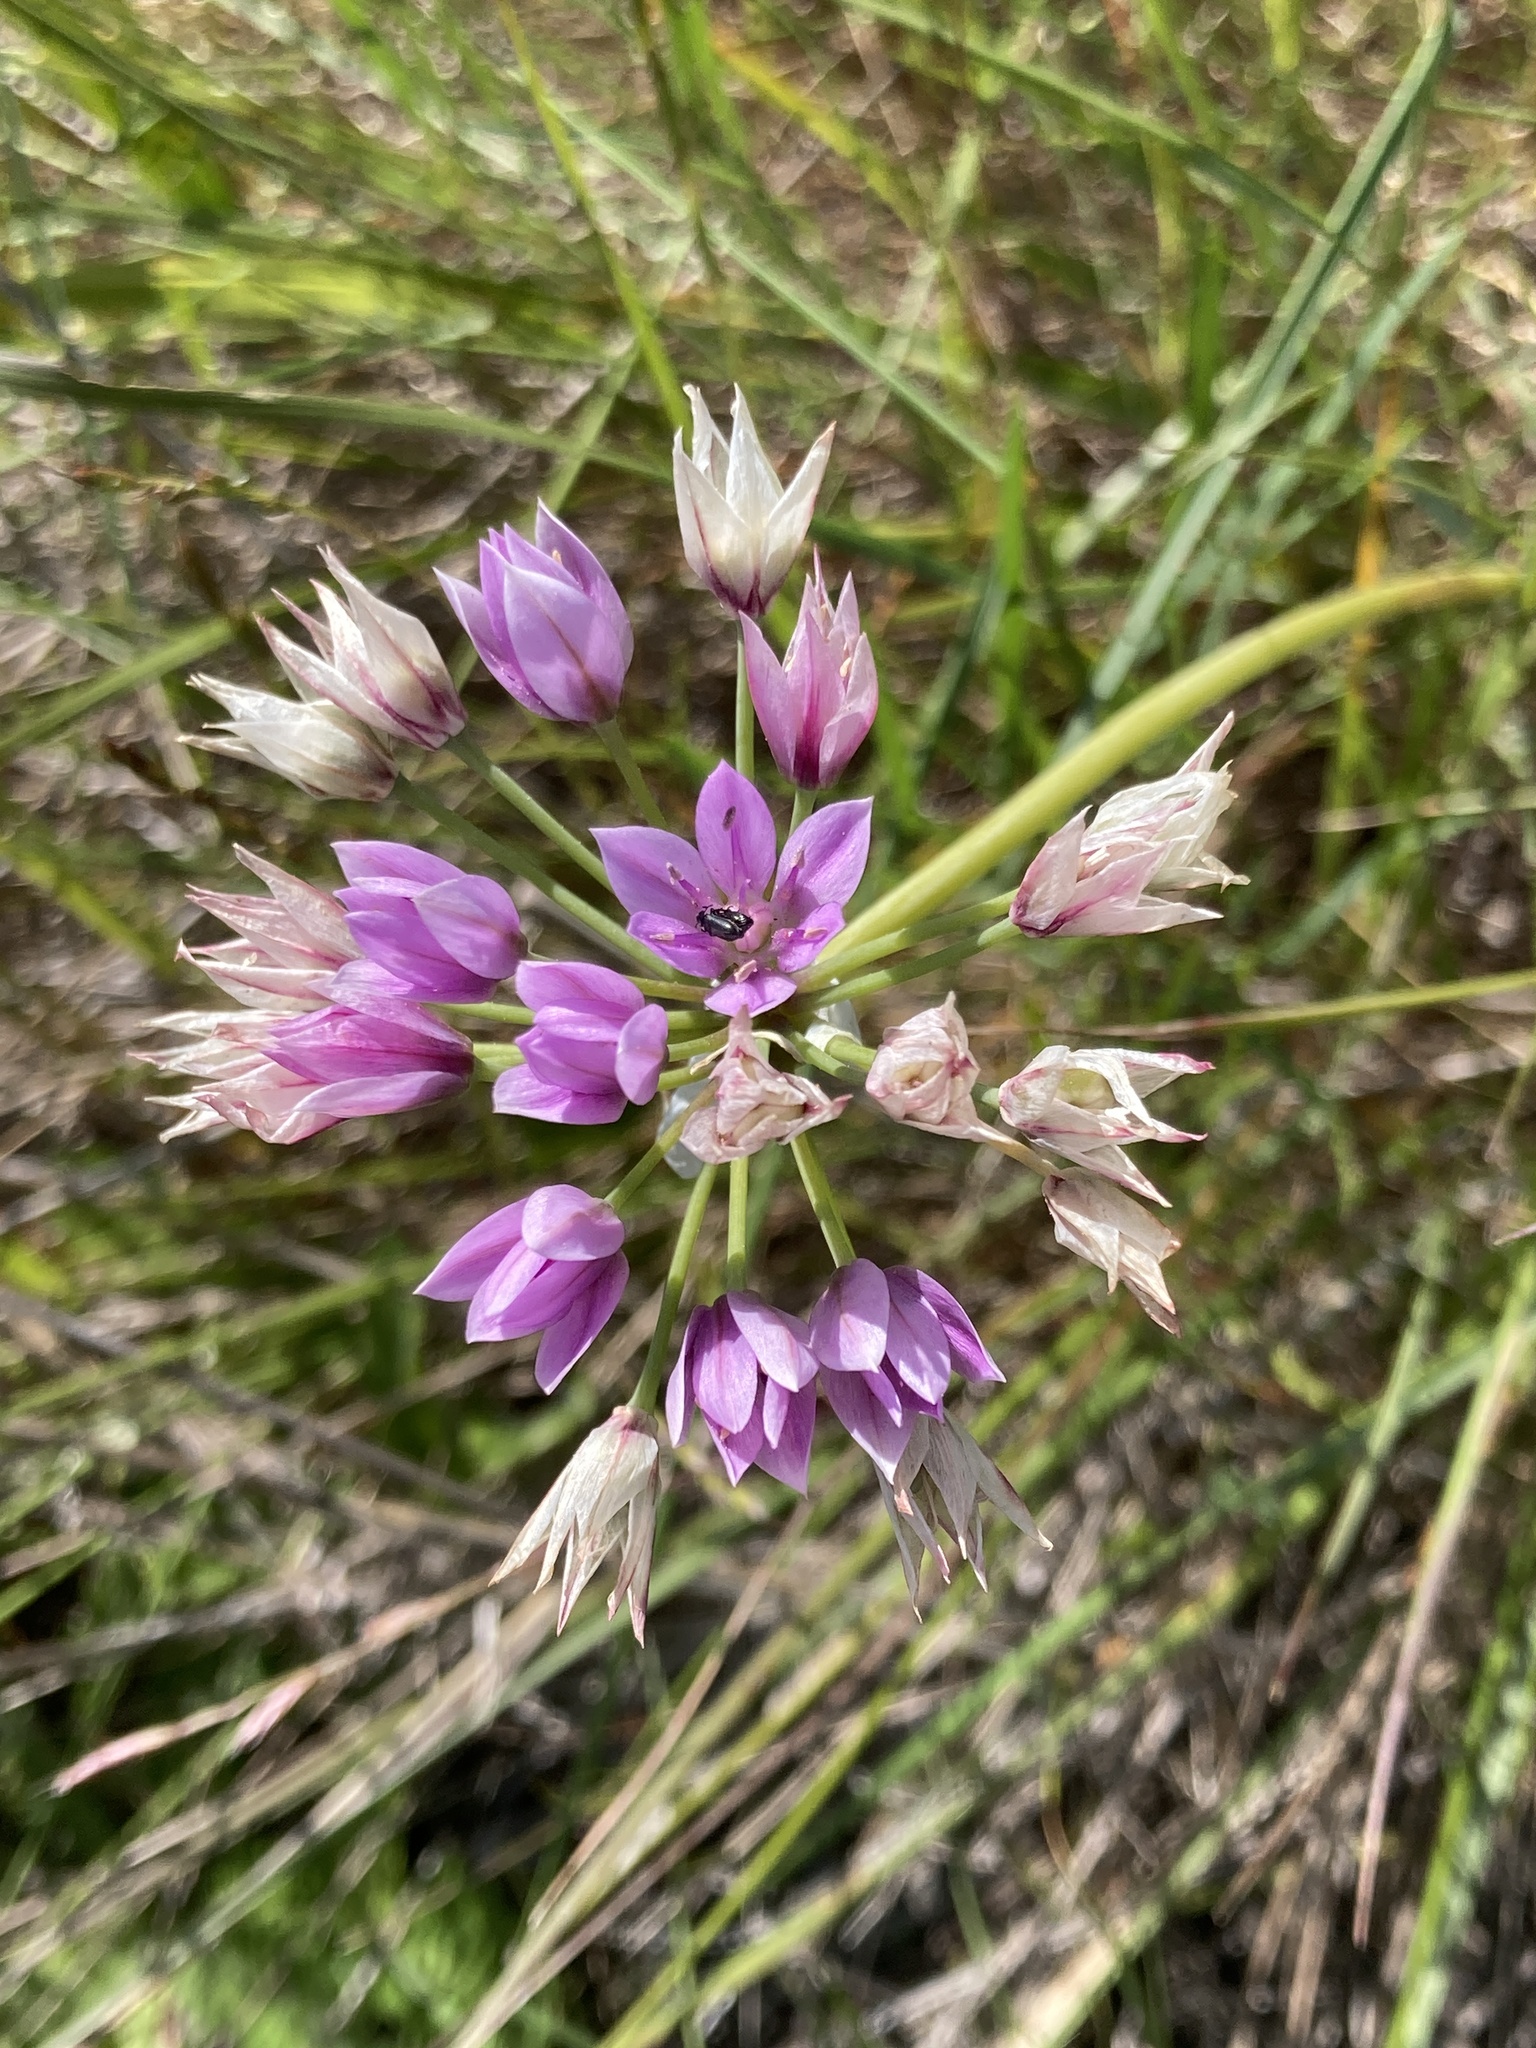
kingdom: Plantae
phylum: Tracheophyta
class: Liliopsida
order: Asparagales
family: Amaryllidaceae
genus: Allium
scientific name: Allium unifolium
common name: American garlic
